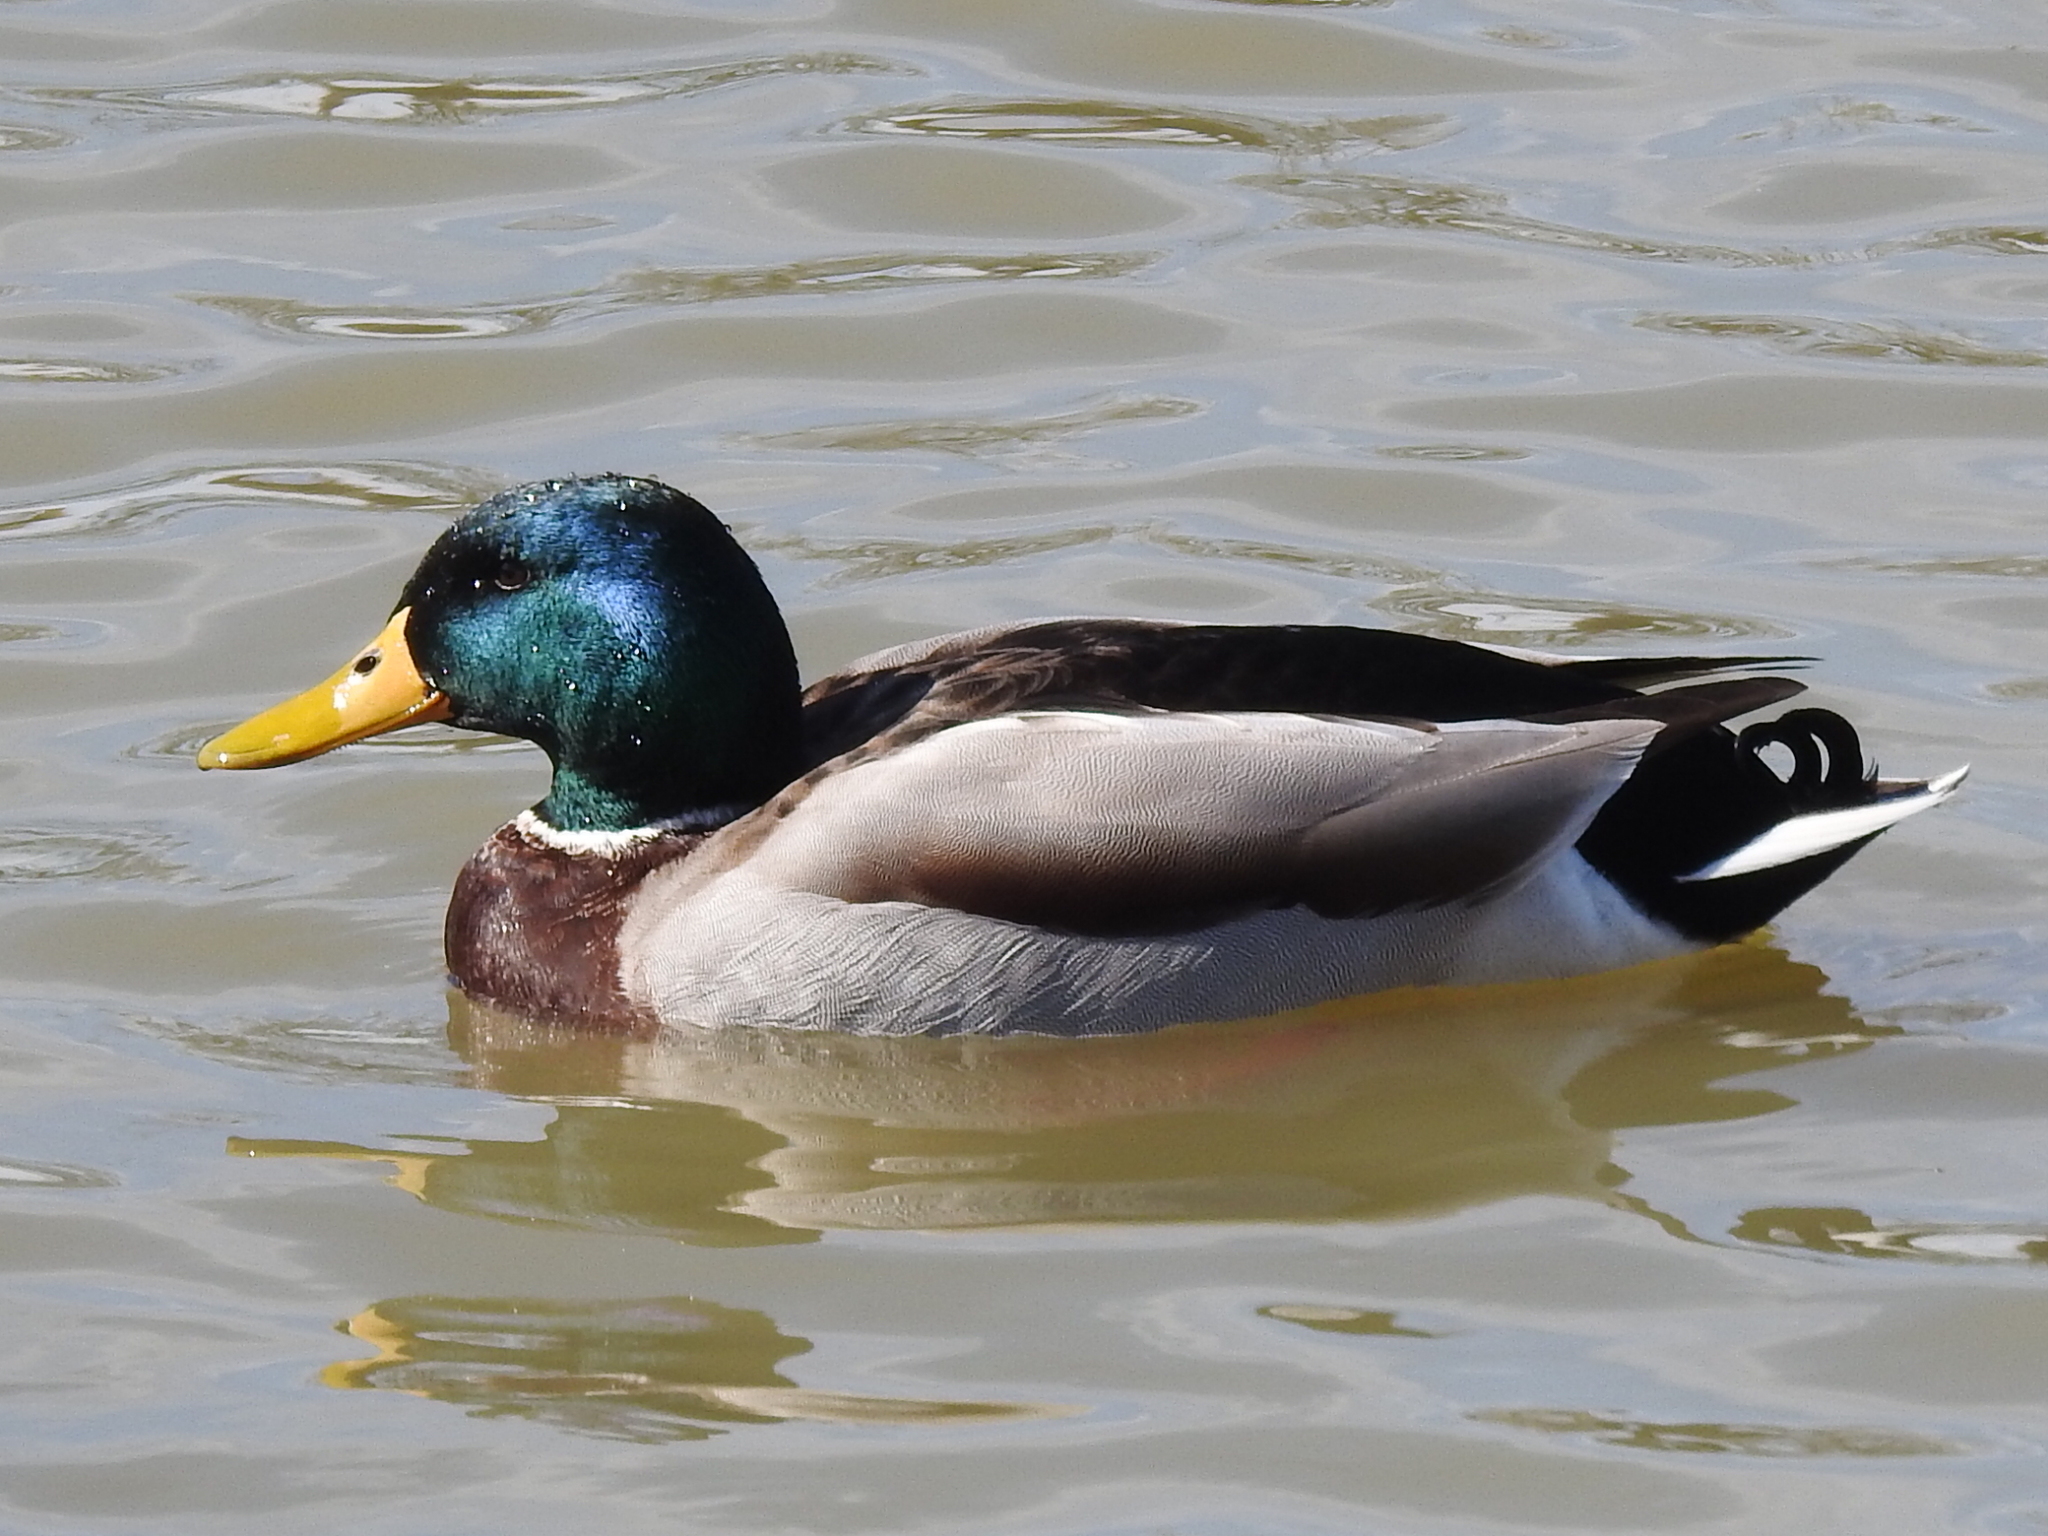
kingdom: Animalia
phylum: Chordata
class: Aves
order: Anseriformes
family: Anatidae
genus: Anas
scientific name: Anas platyrhynchos
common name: Mallard
